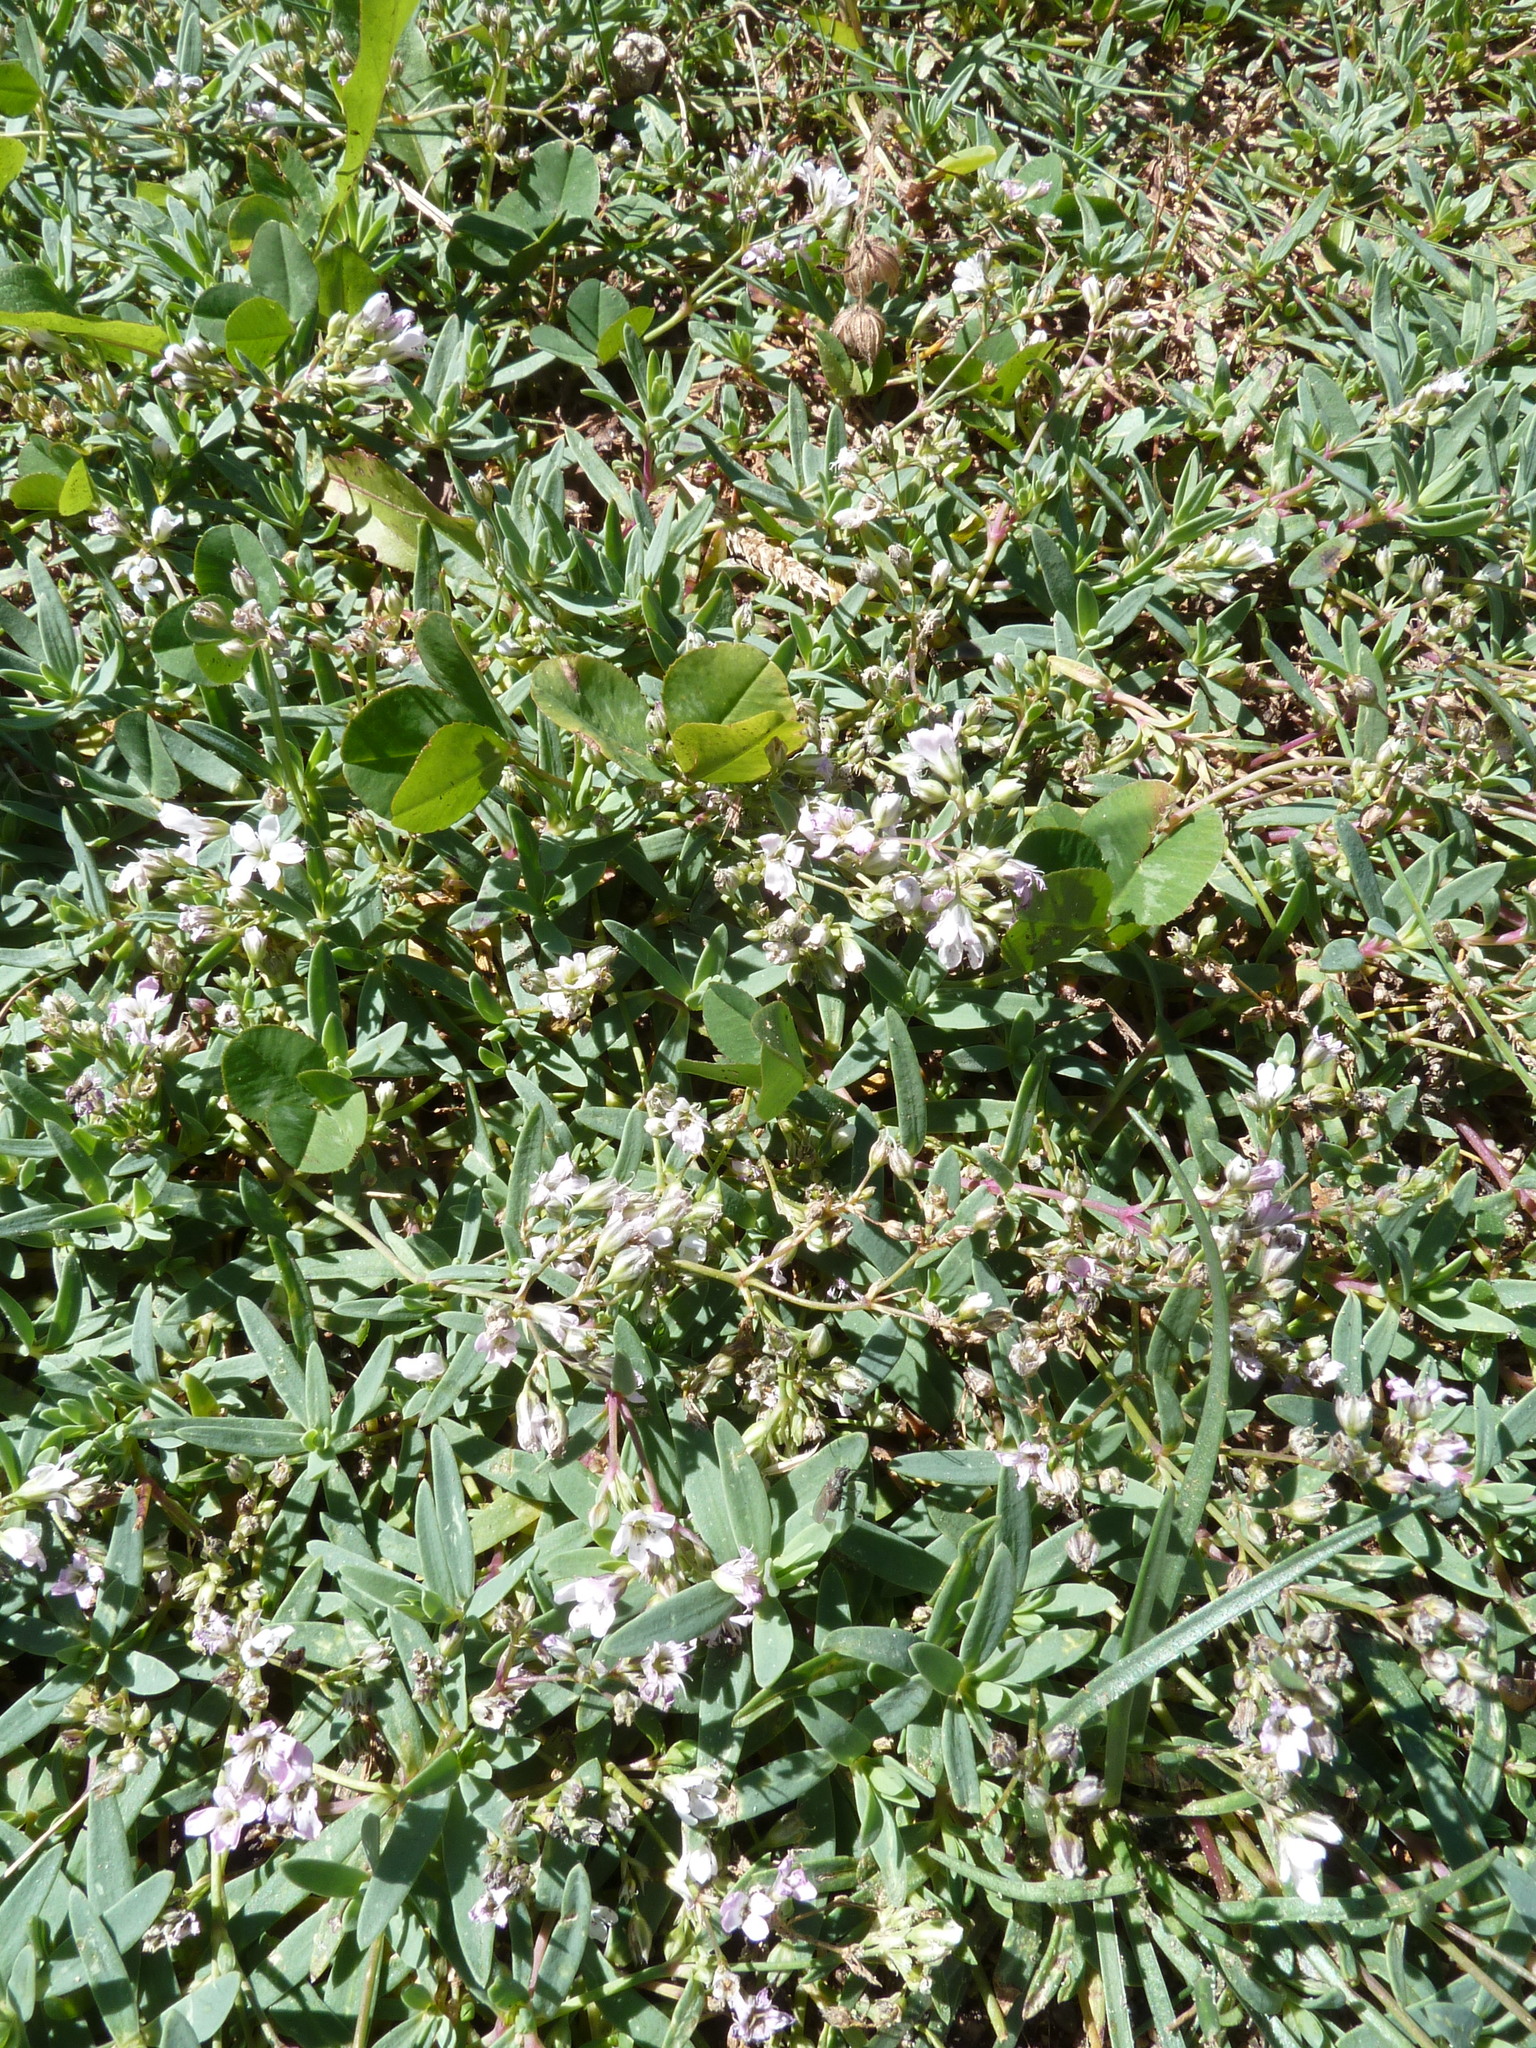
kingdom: Plantae
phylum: Tracheophyta
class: Magnoliopsida
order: Caryophyllales
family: Caryophyllaceae
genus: Gypsophila
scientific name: Gypsophila repens
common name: Creeping baby's-breath
